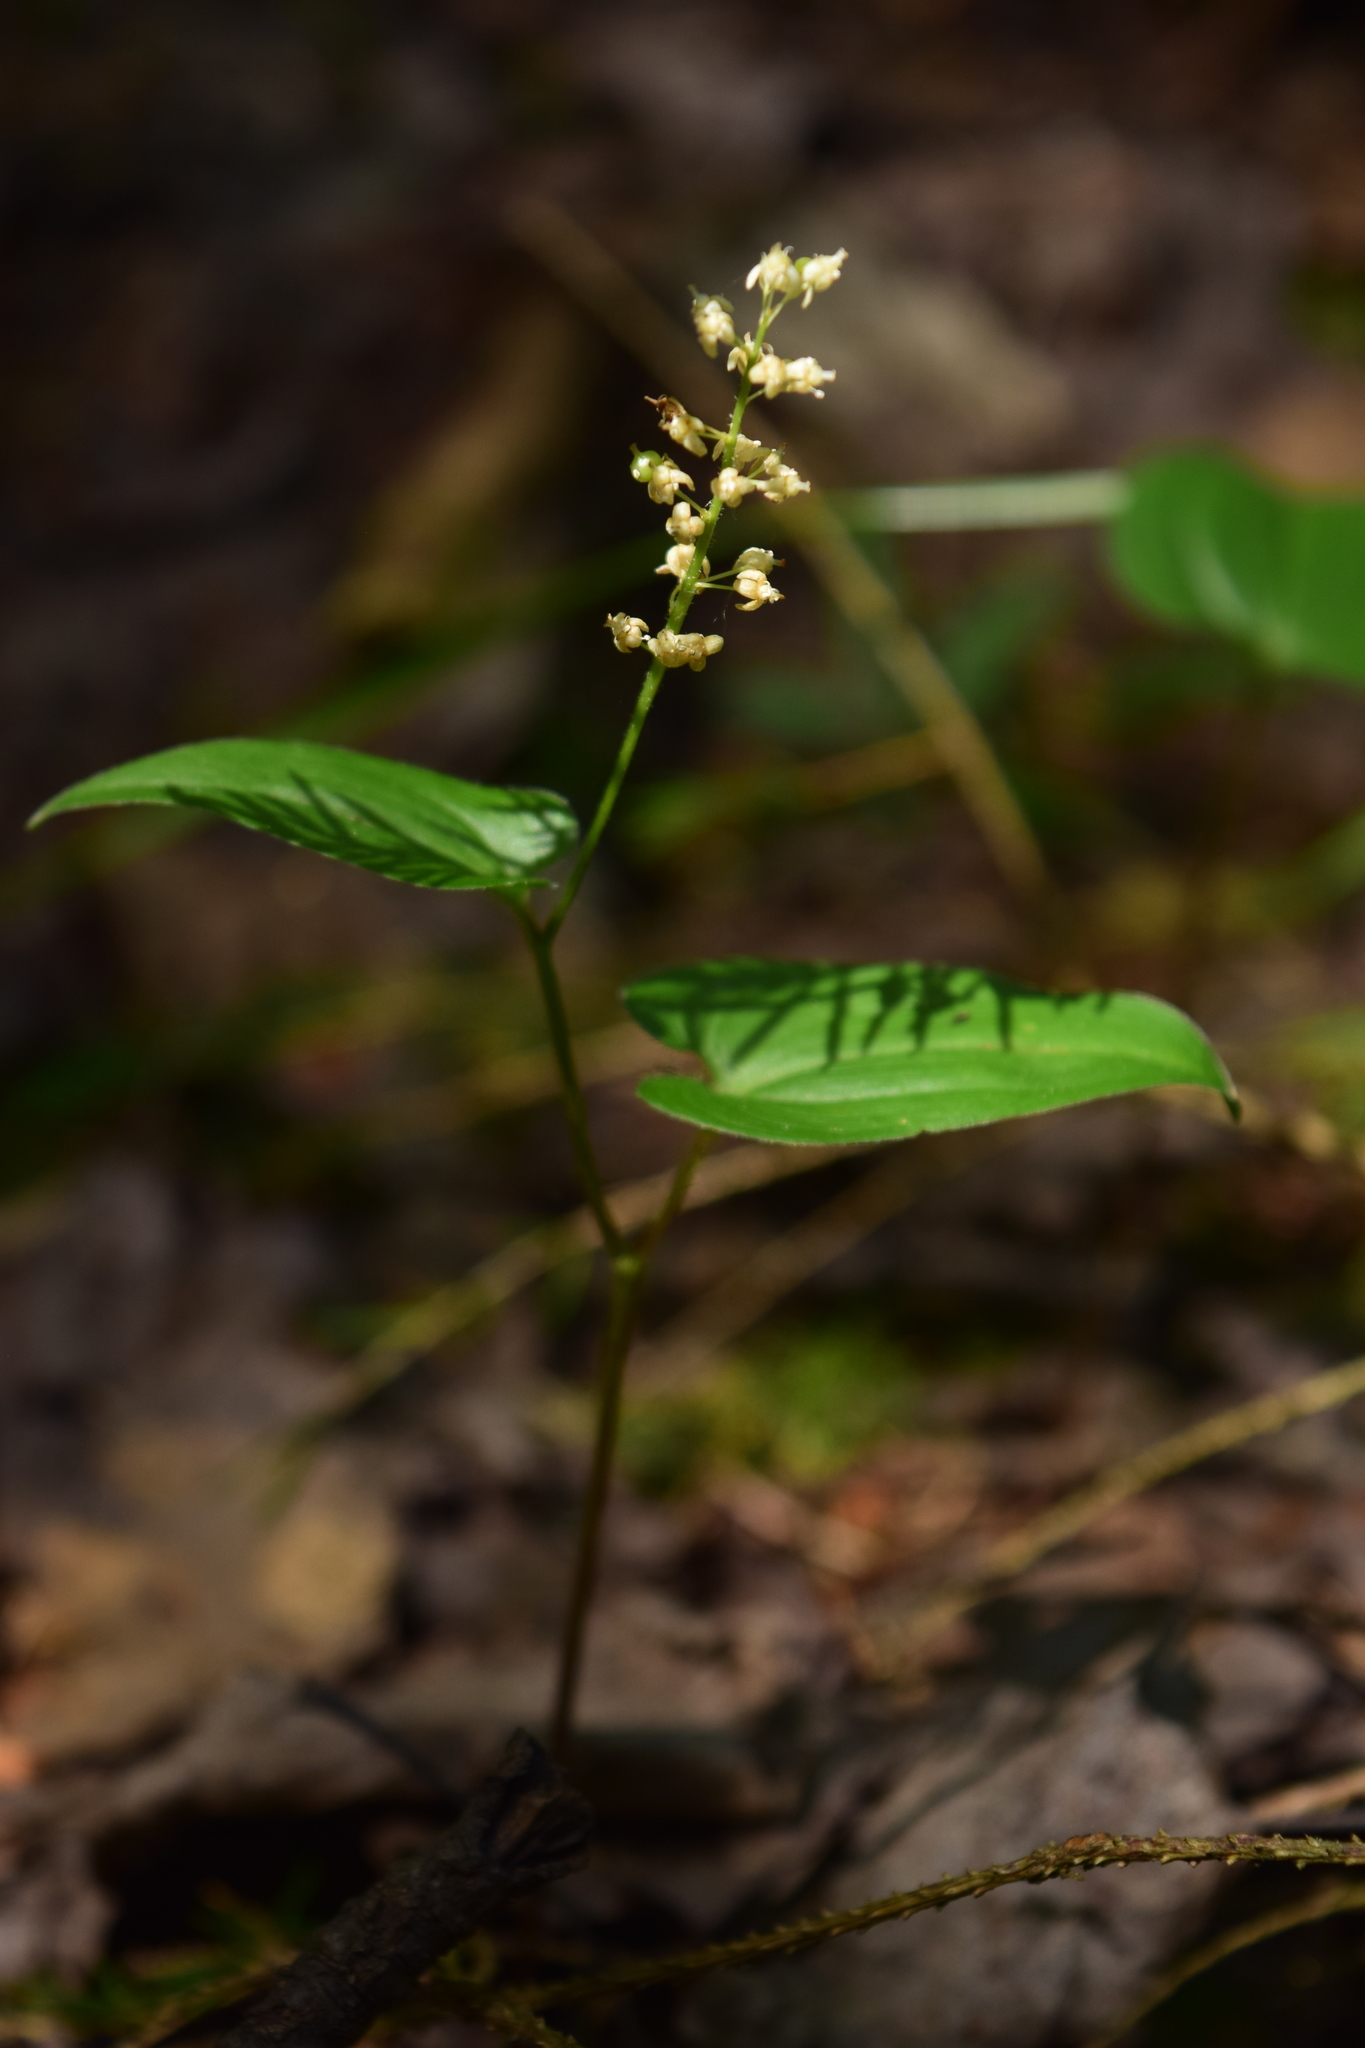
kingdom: Plantae
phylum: Tracheophyta
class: Liliopsida
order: Asparagales
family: Asparagaceae
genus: Maianthemum
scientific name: Maianthemum bifolium
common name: May lily
